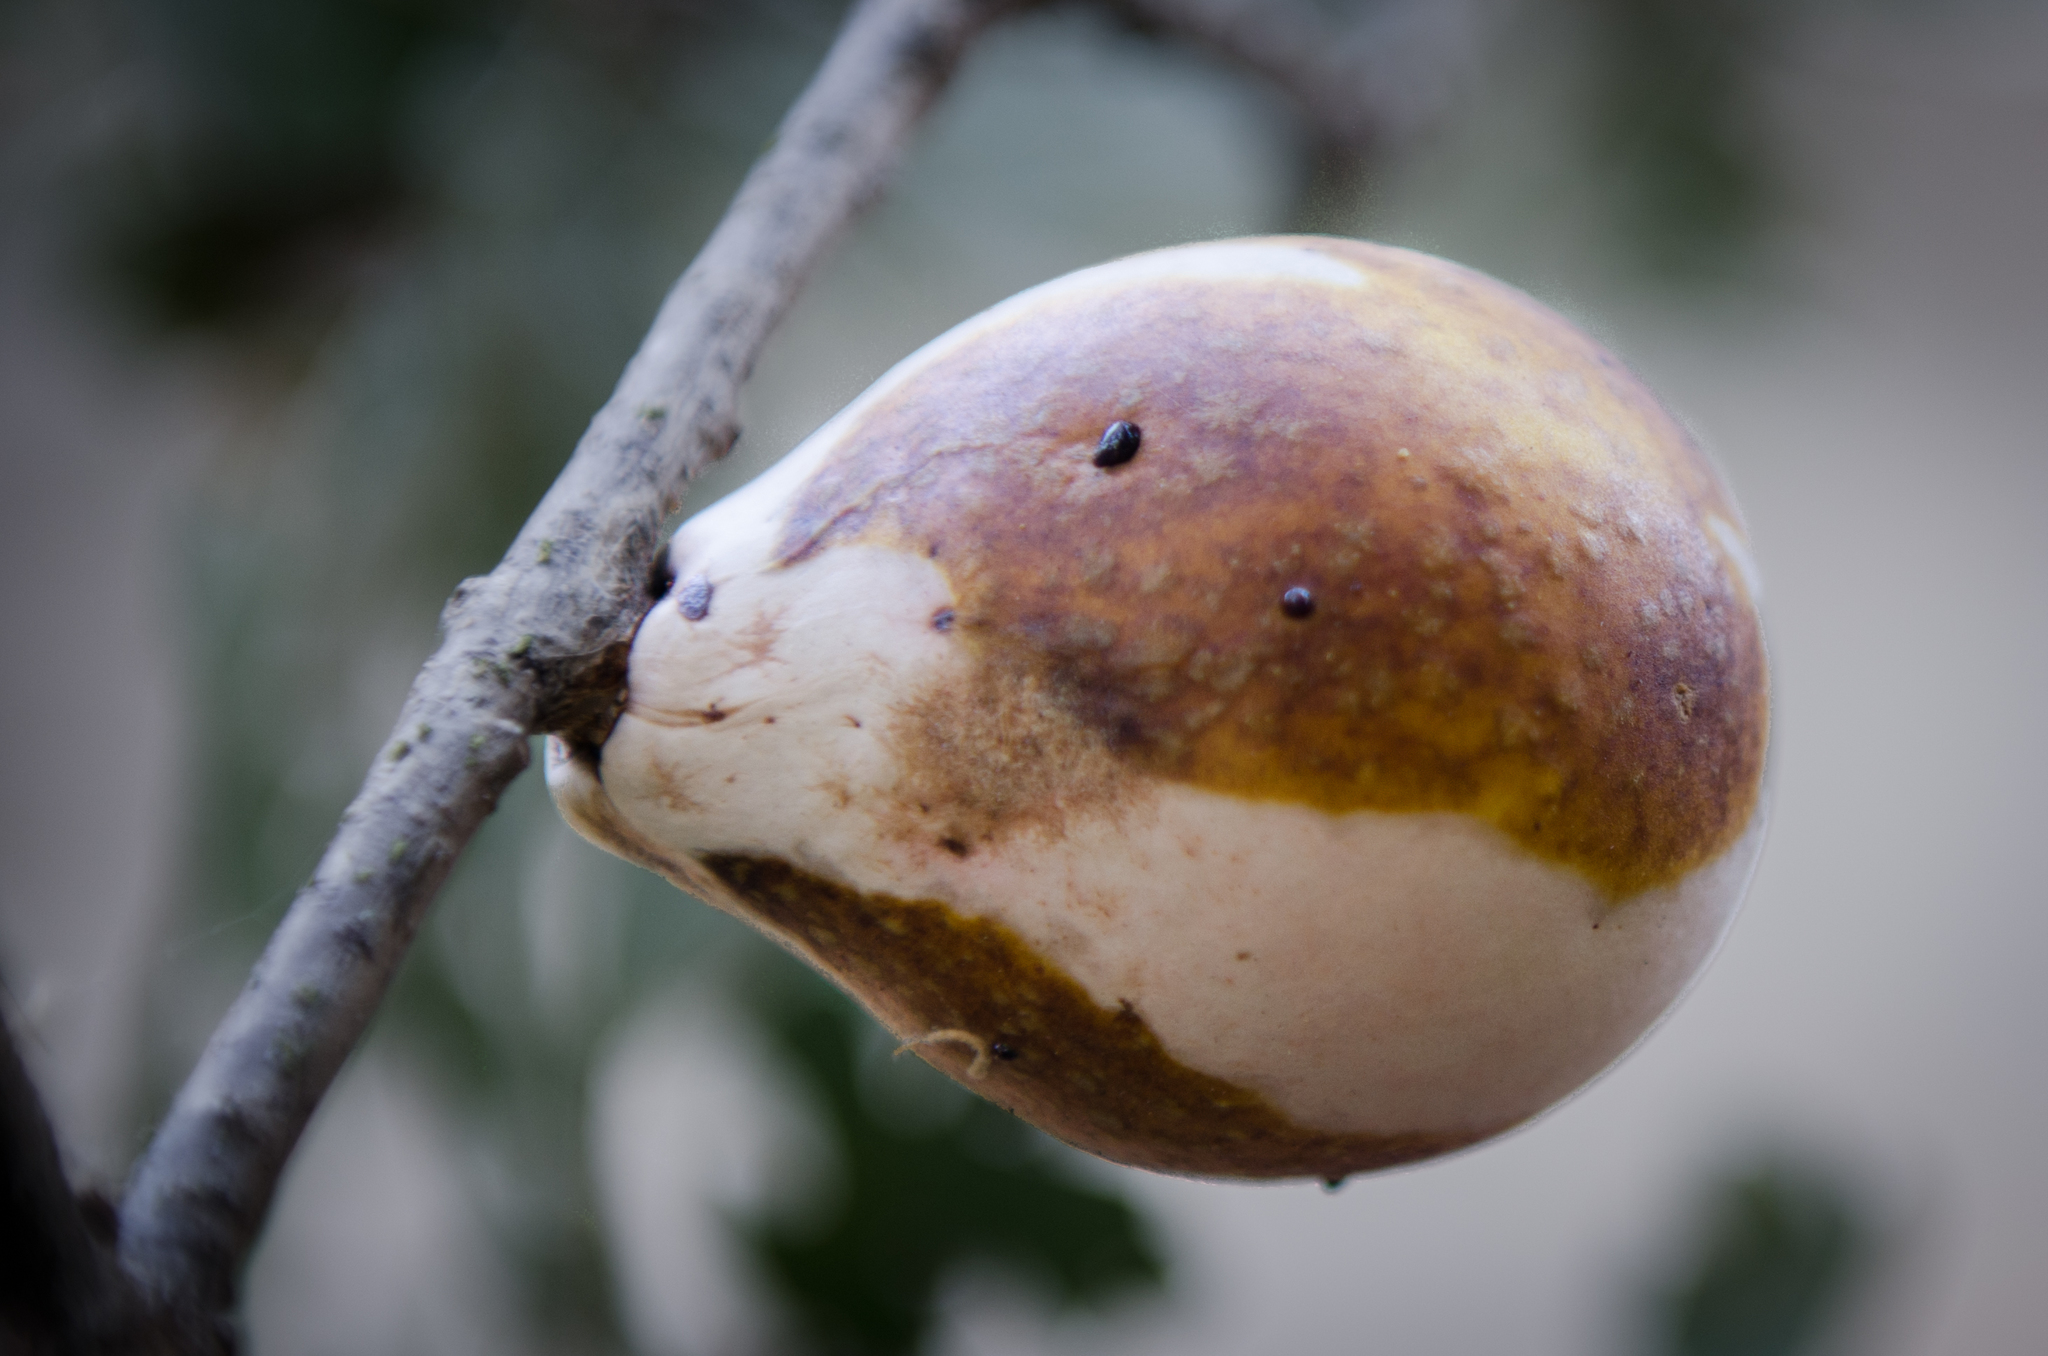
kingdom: Animalia
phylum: Arthropoda
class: Insecta
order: Hymenoptera
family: Cynipidae
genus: Andricus
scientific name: Andricus quercuscalifornicus
